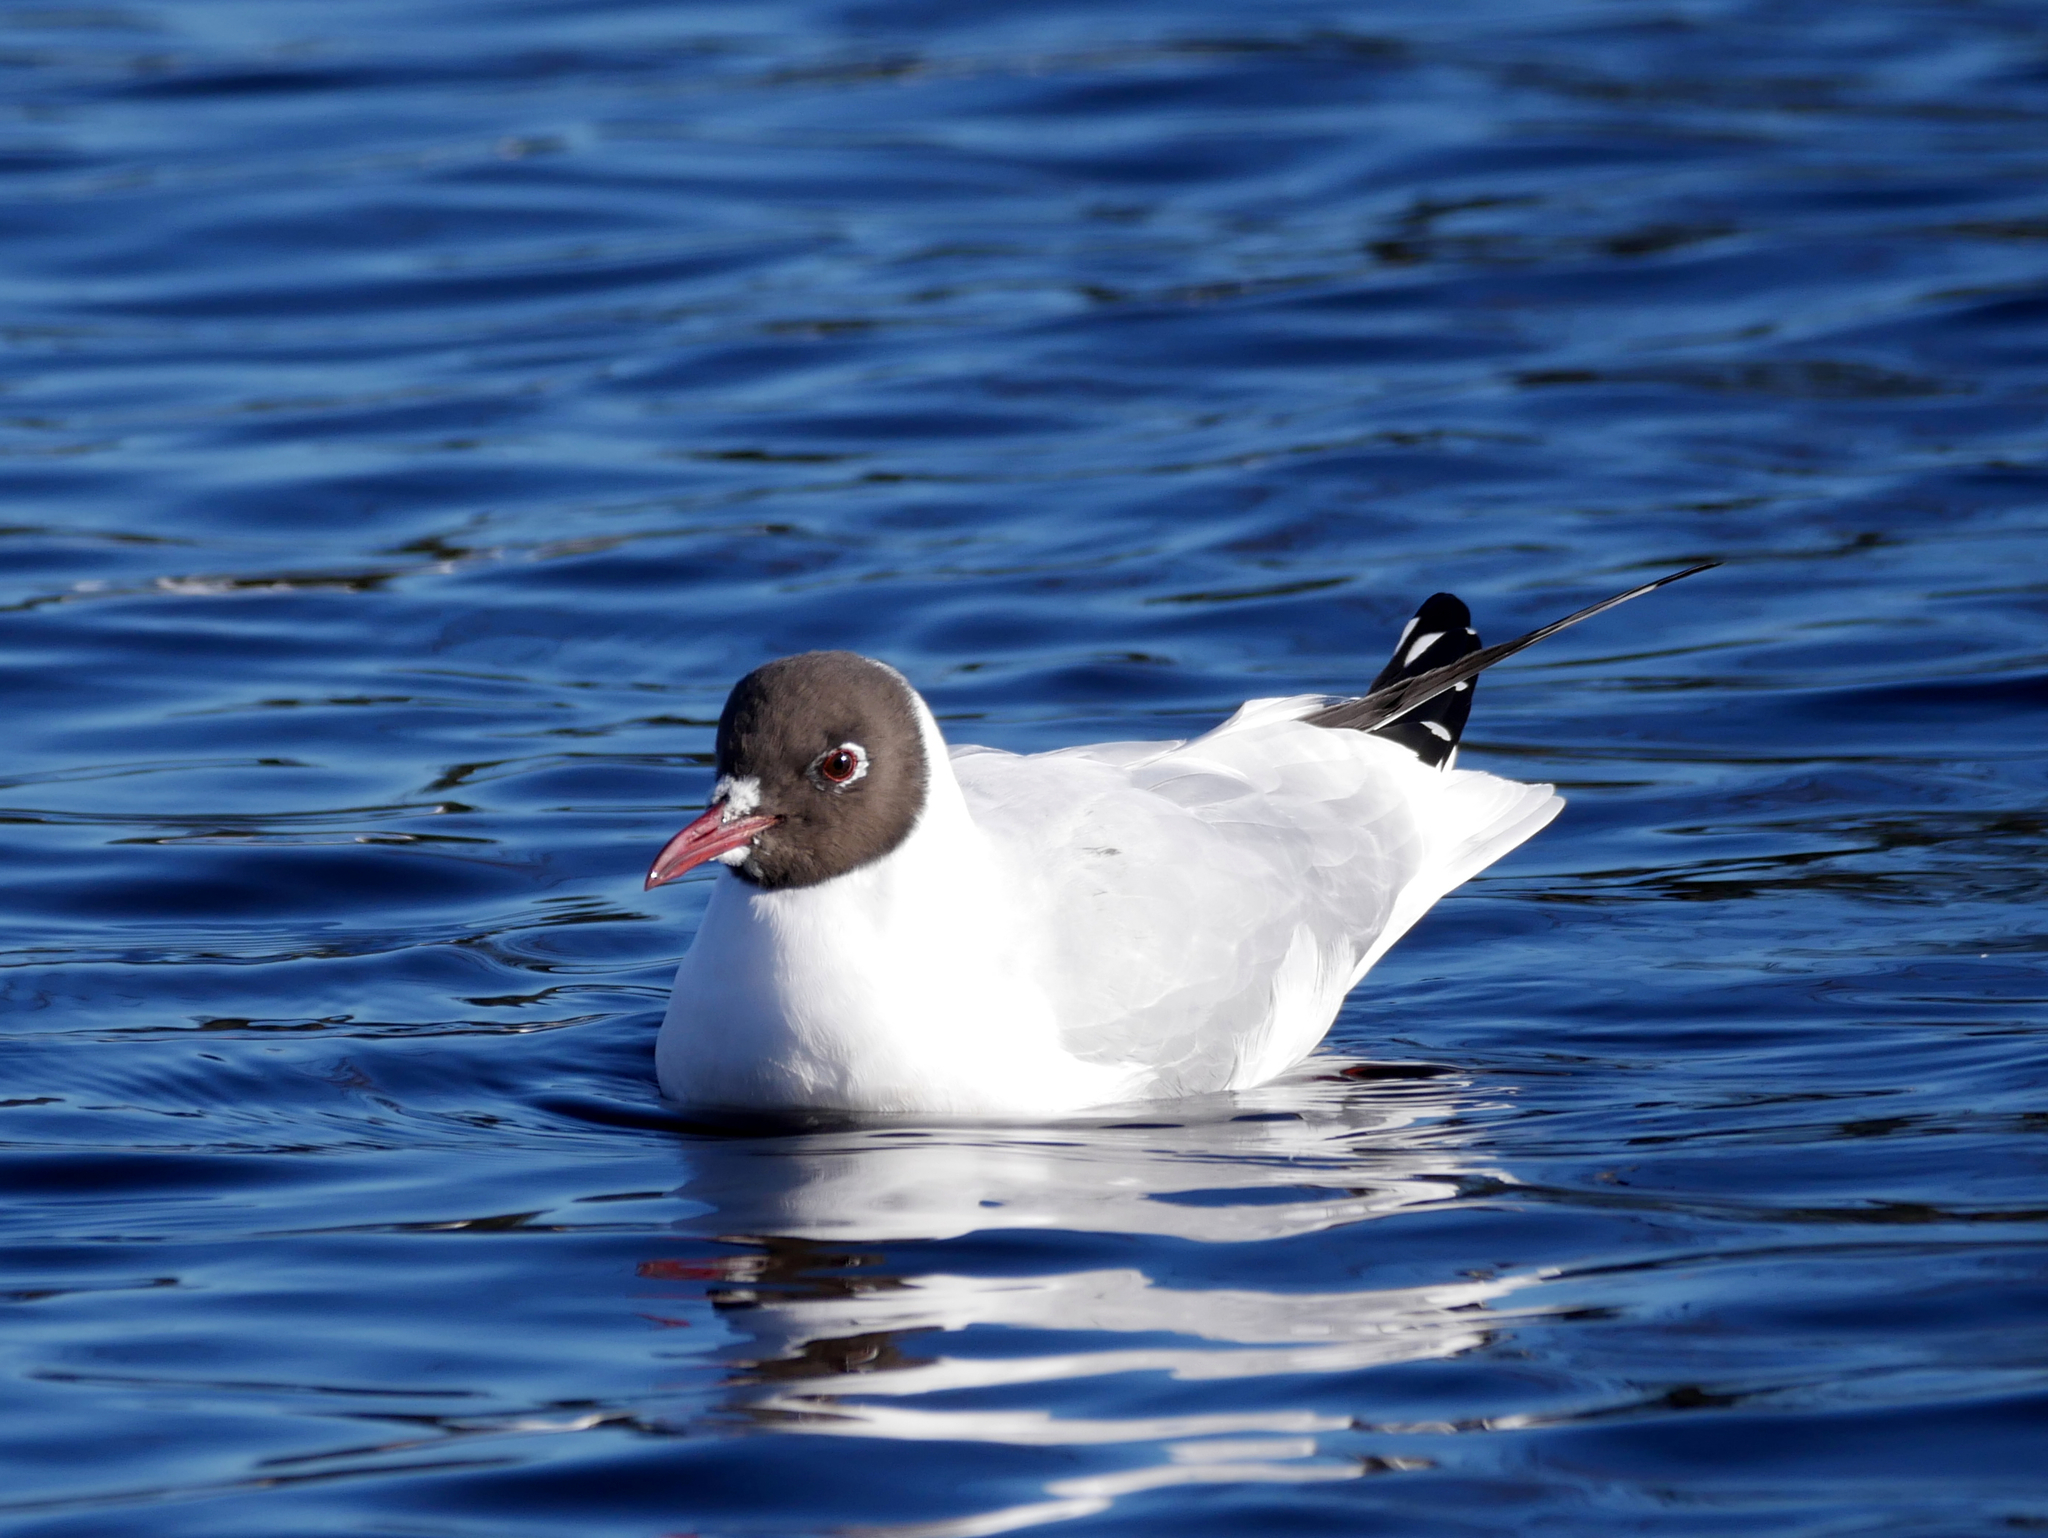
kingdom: Animalia
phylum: Chordata
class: Aves
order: Charadriiformes
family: Laridae
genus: Chroicocephalus
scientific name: Chroicocephalus ridibundus
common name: Black-headed gull
